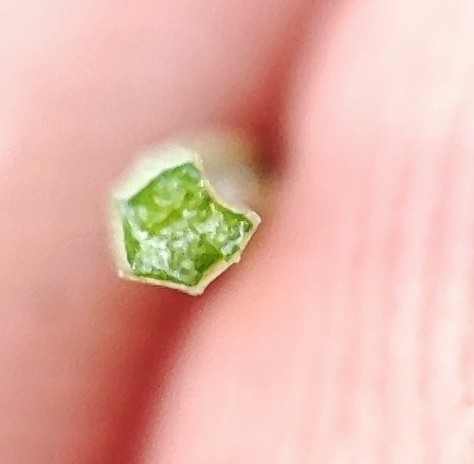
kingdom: Plantae
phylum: Tracheophyta
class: Magnoliopsida
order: Apiales
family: Apiaceae
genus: Kadenia
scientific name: Kadenia dubia
